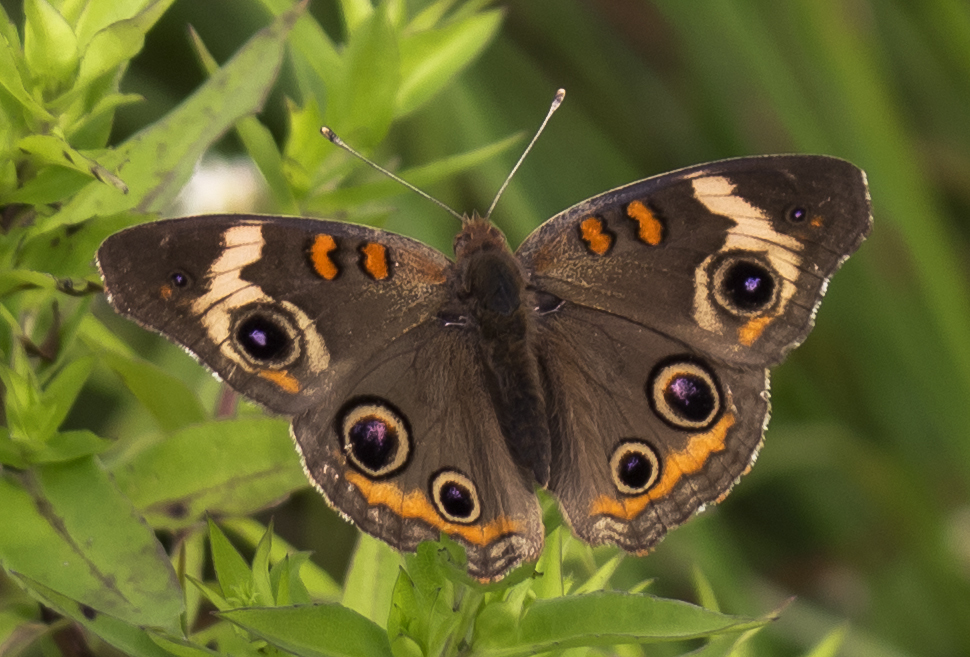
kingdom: Animalia
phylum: Arthropoda
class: Insecta
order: Lepidoptera
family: Nymphalidae
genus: Junonia
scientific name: Junonia coenia
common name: Common buckeye
